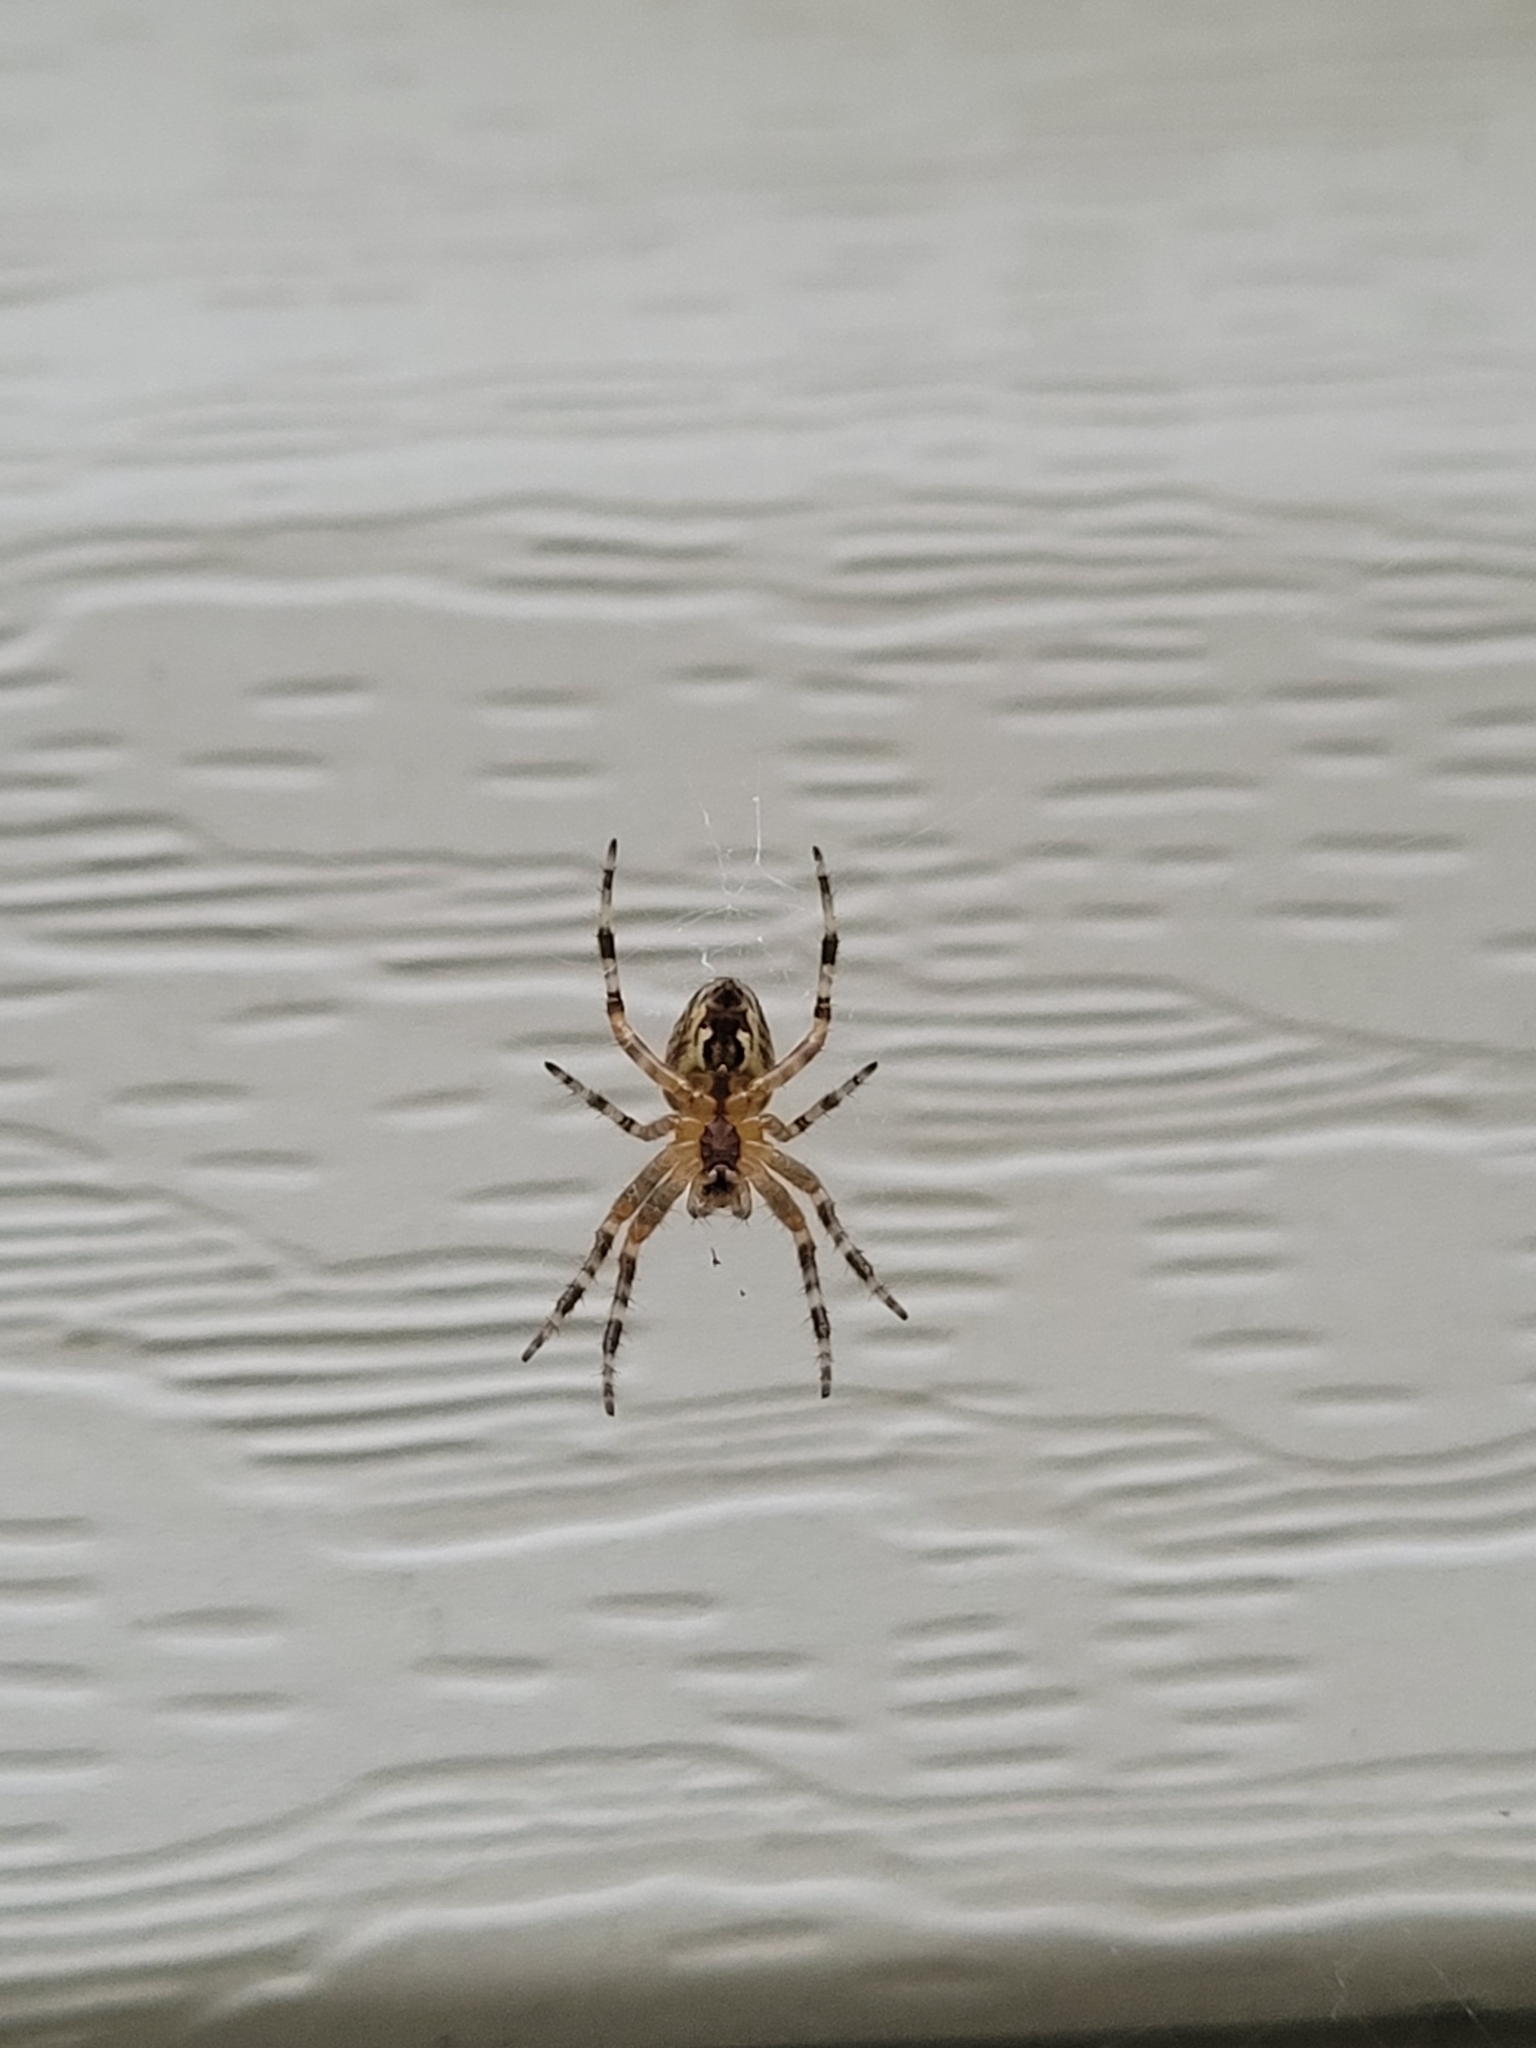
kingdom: Animalia
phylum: Arthropoda
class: Arachnida
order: Araneae
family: Araneidae
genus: Araneus
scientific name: Araneus diadematus
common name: Cross orbweaver
